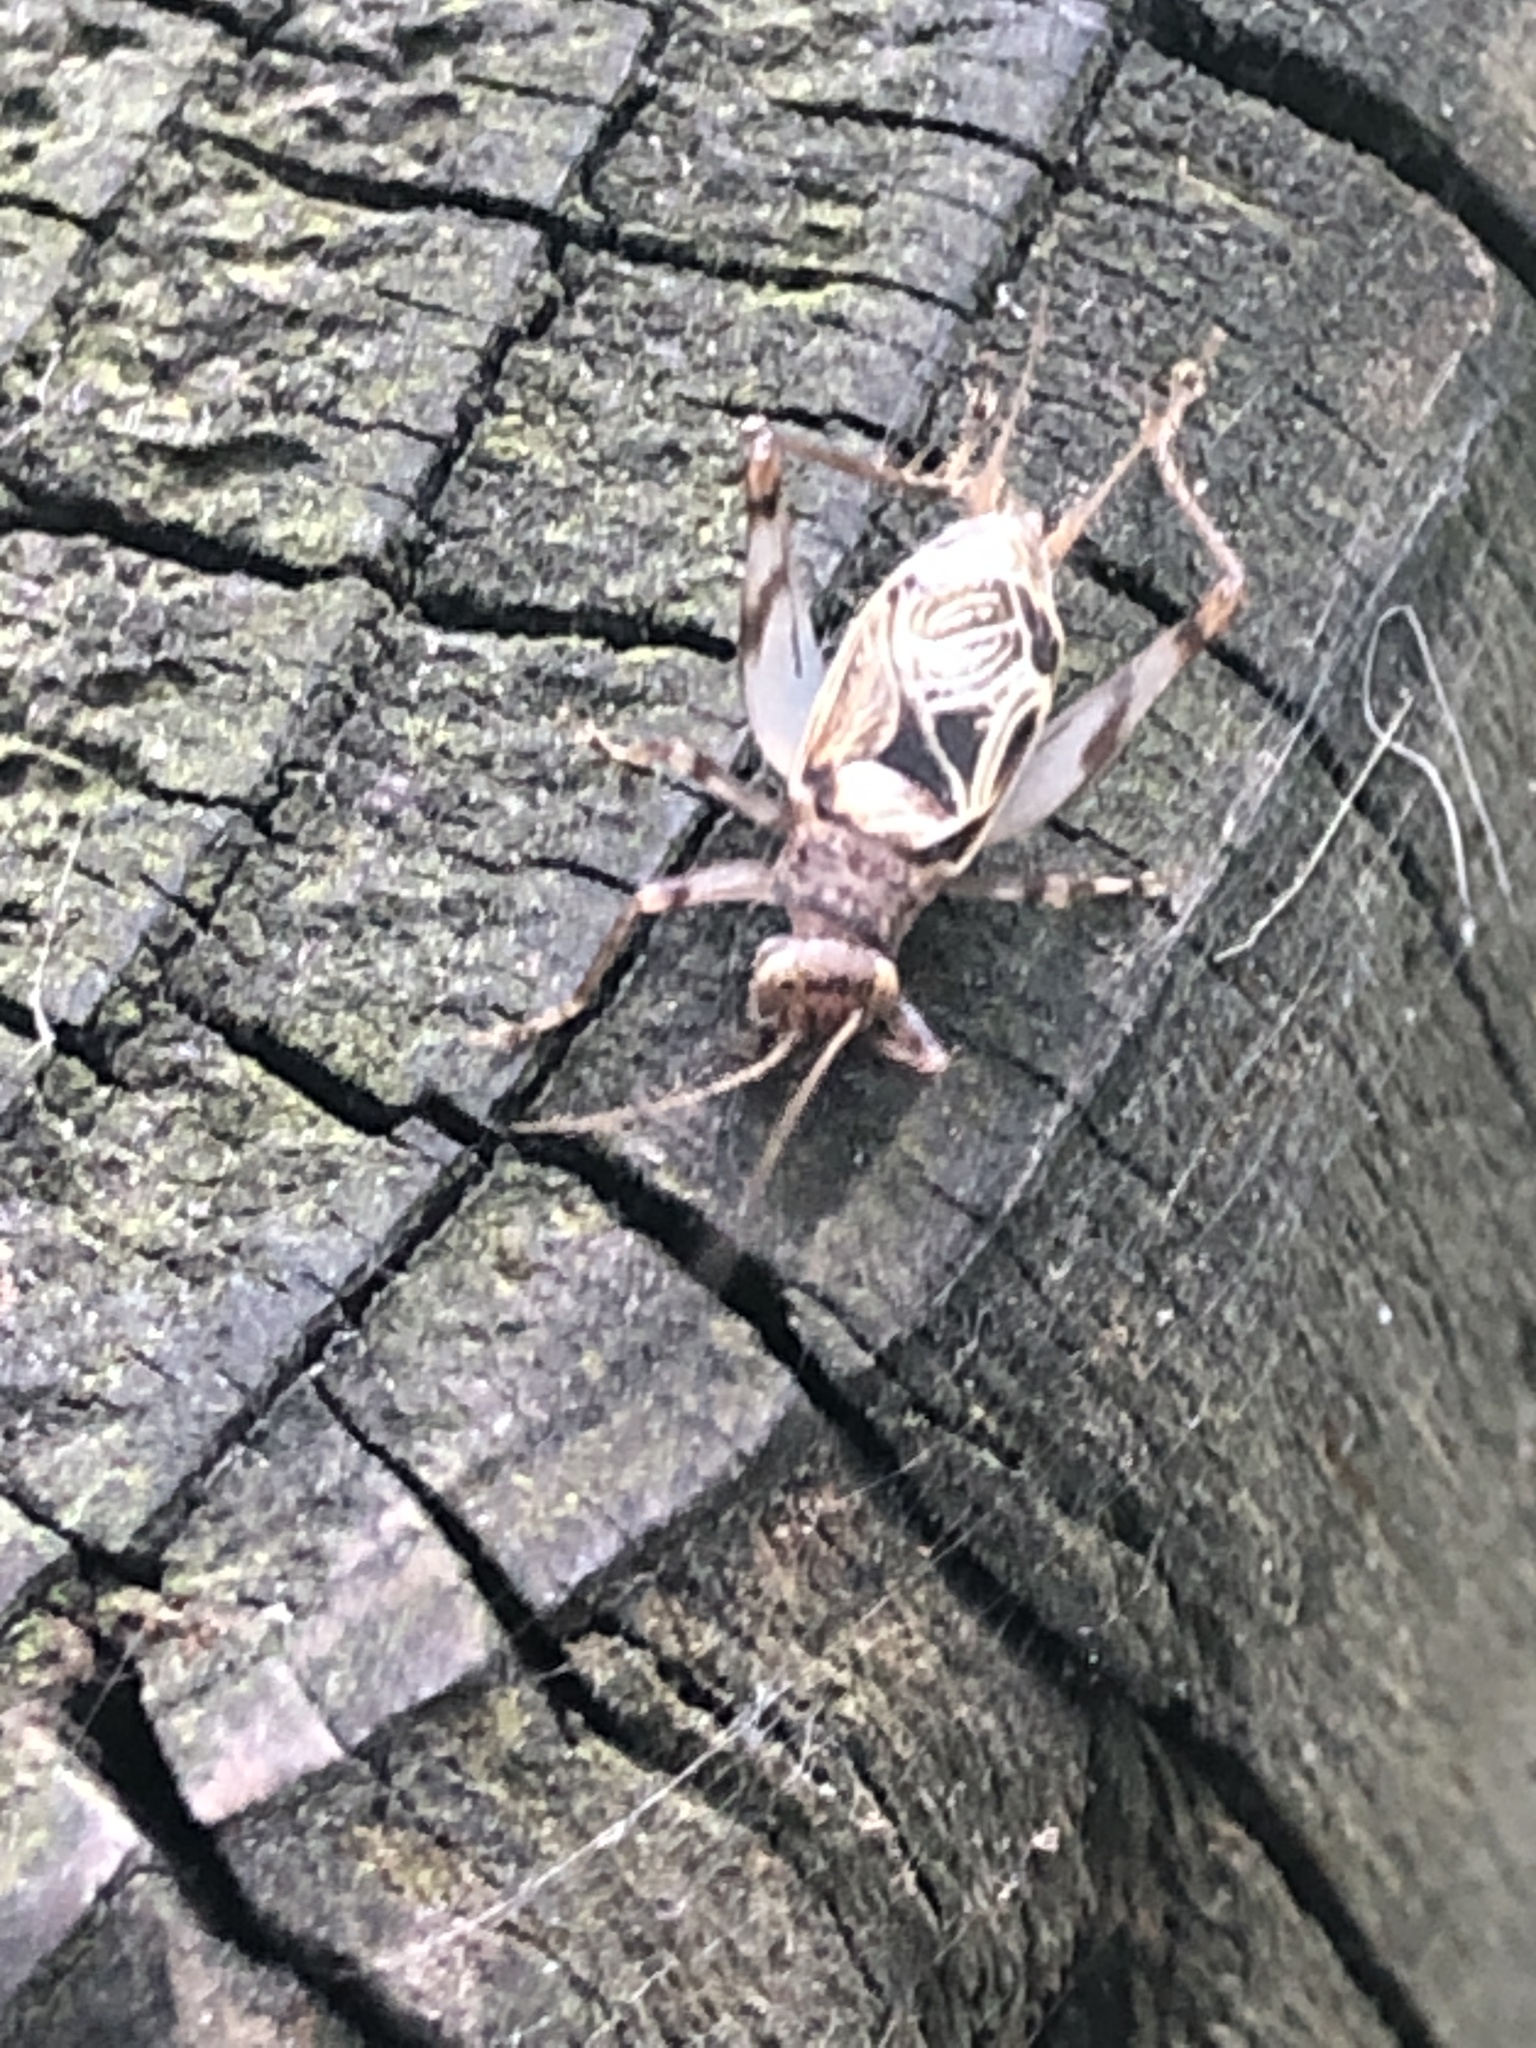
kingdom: Animalia
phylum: Arthropoda
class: Insecta
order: Orthoptera
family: Trigonidiidae
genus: Svistella
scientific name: Svistella bifasciata
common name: Gold bell
